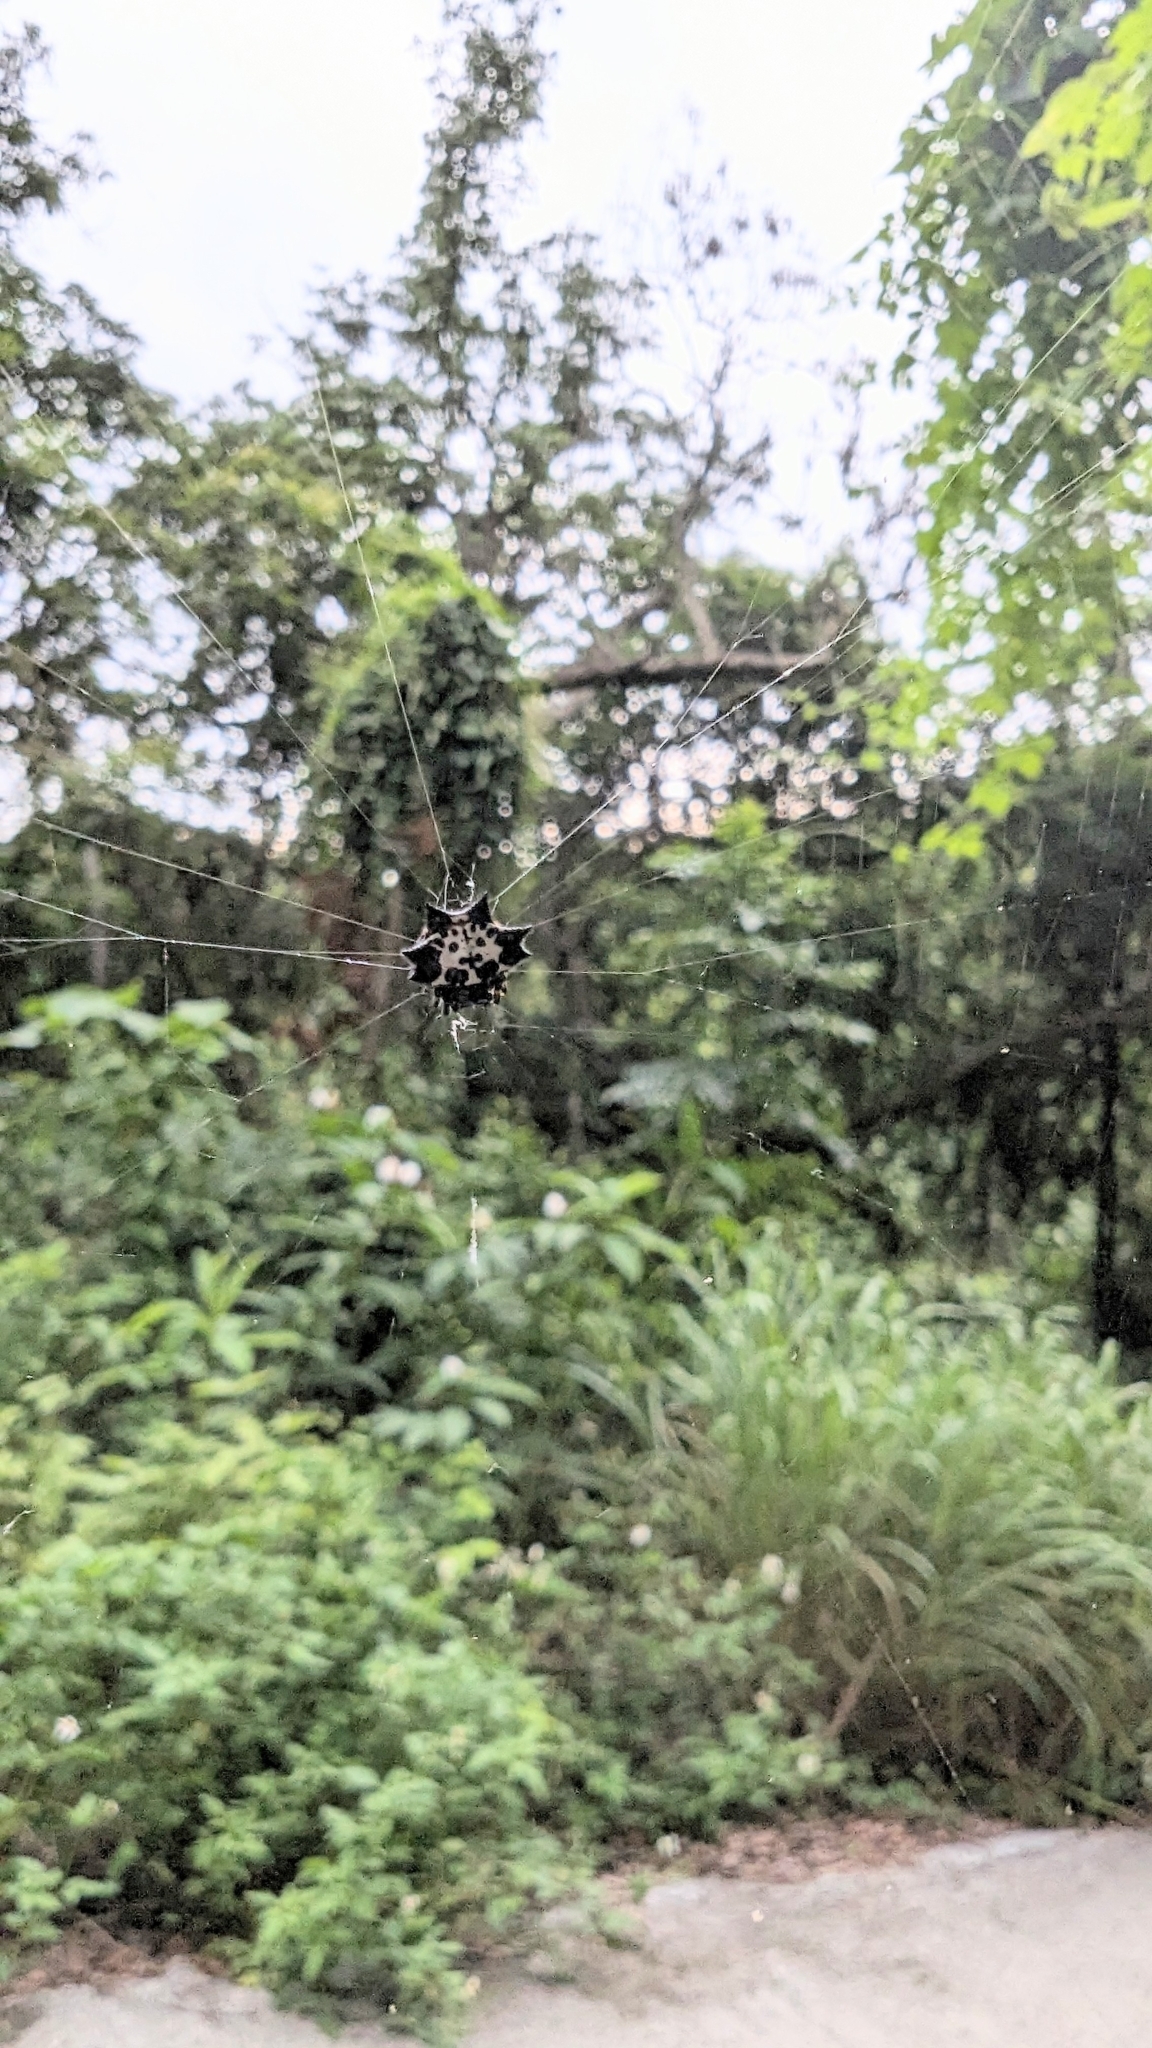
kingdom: Animalia
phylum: Arthropoda
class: Arachnida
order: Araneae
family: Araneidae
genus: Gasteracantha
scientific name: Gasteracantha kuhli
